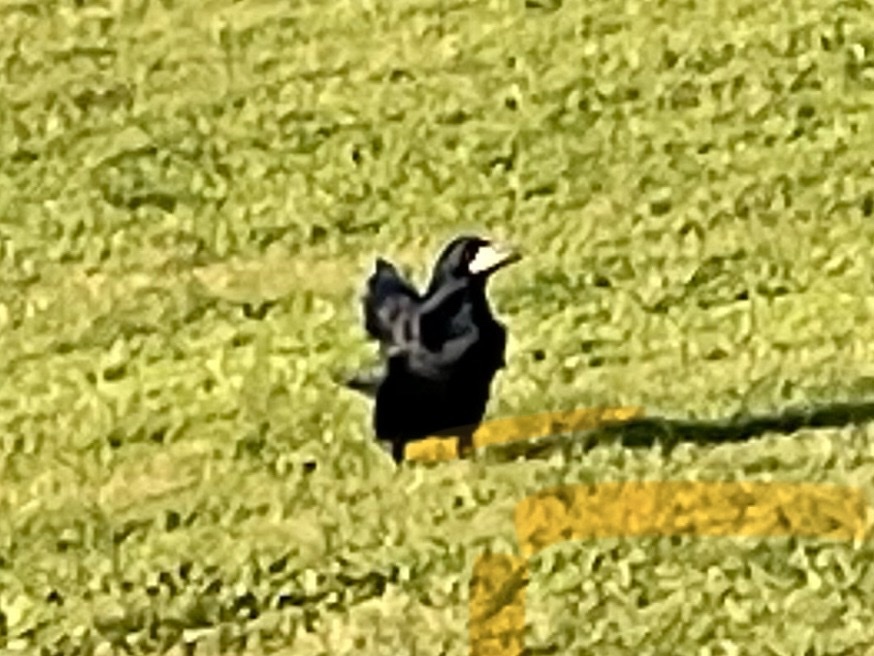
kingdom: Animalia
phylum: Chordata
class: Aves
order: Passeriformes
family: Corvidae
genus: Corvus
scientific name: Corvus frugilegus
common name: Rook
